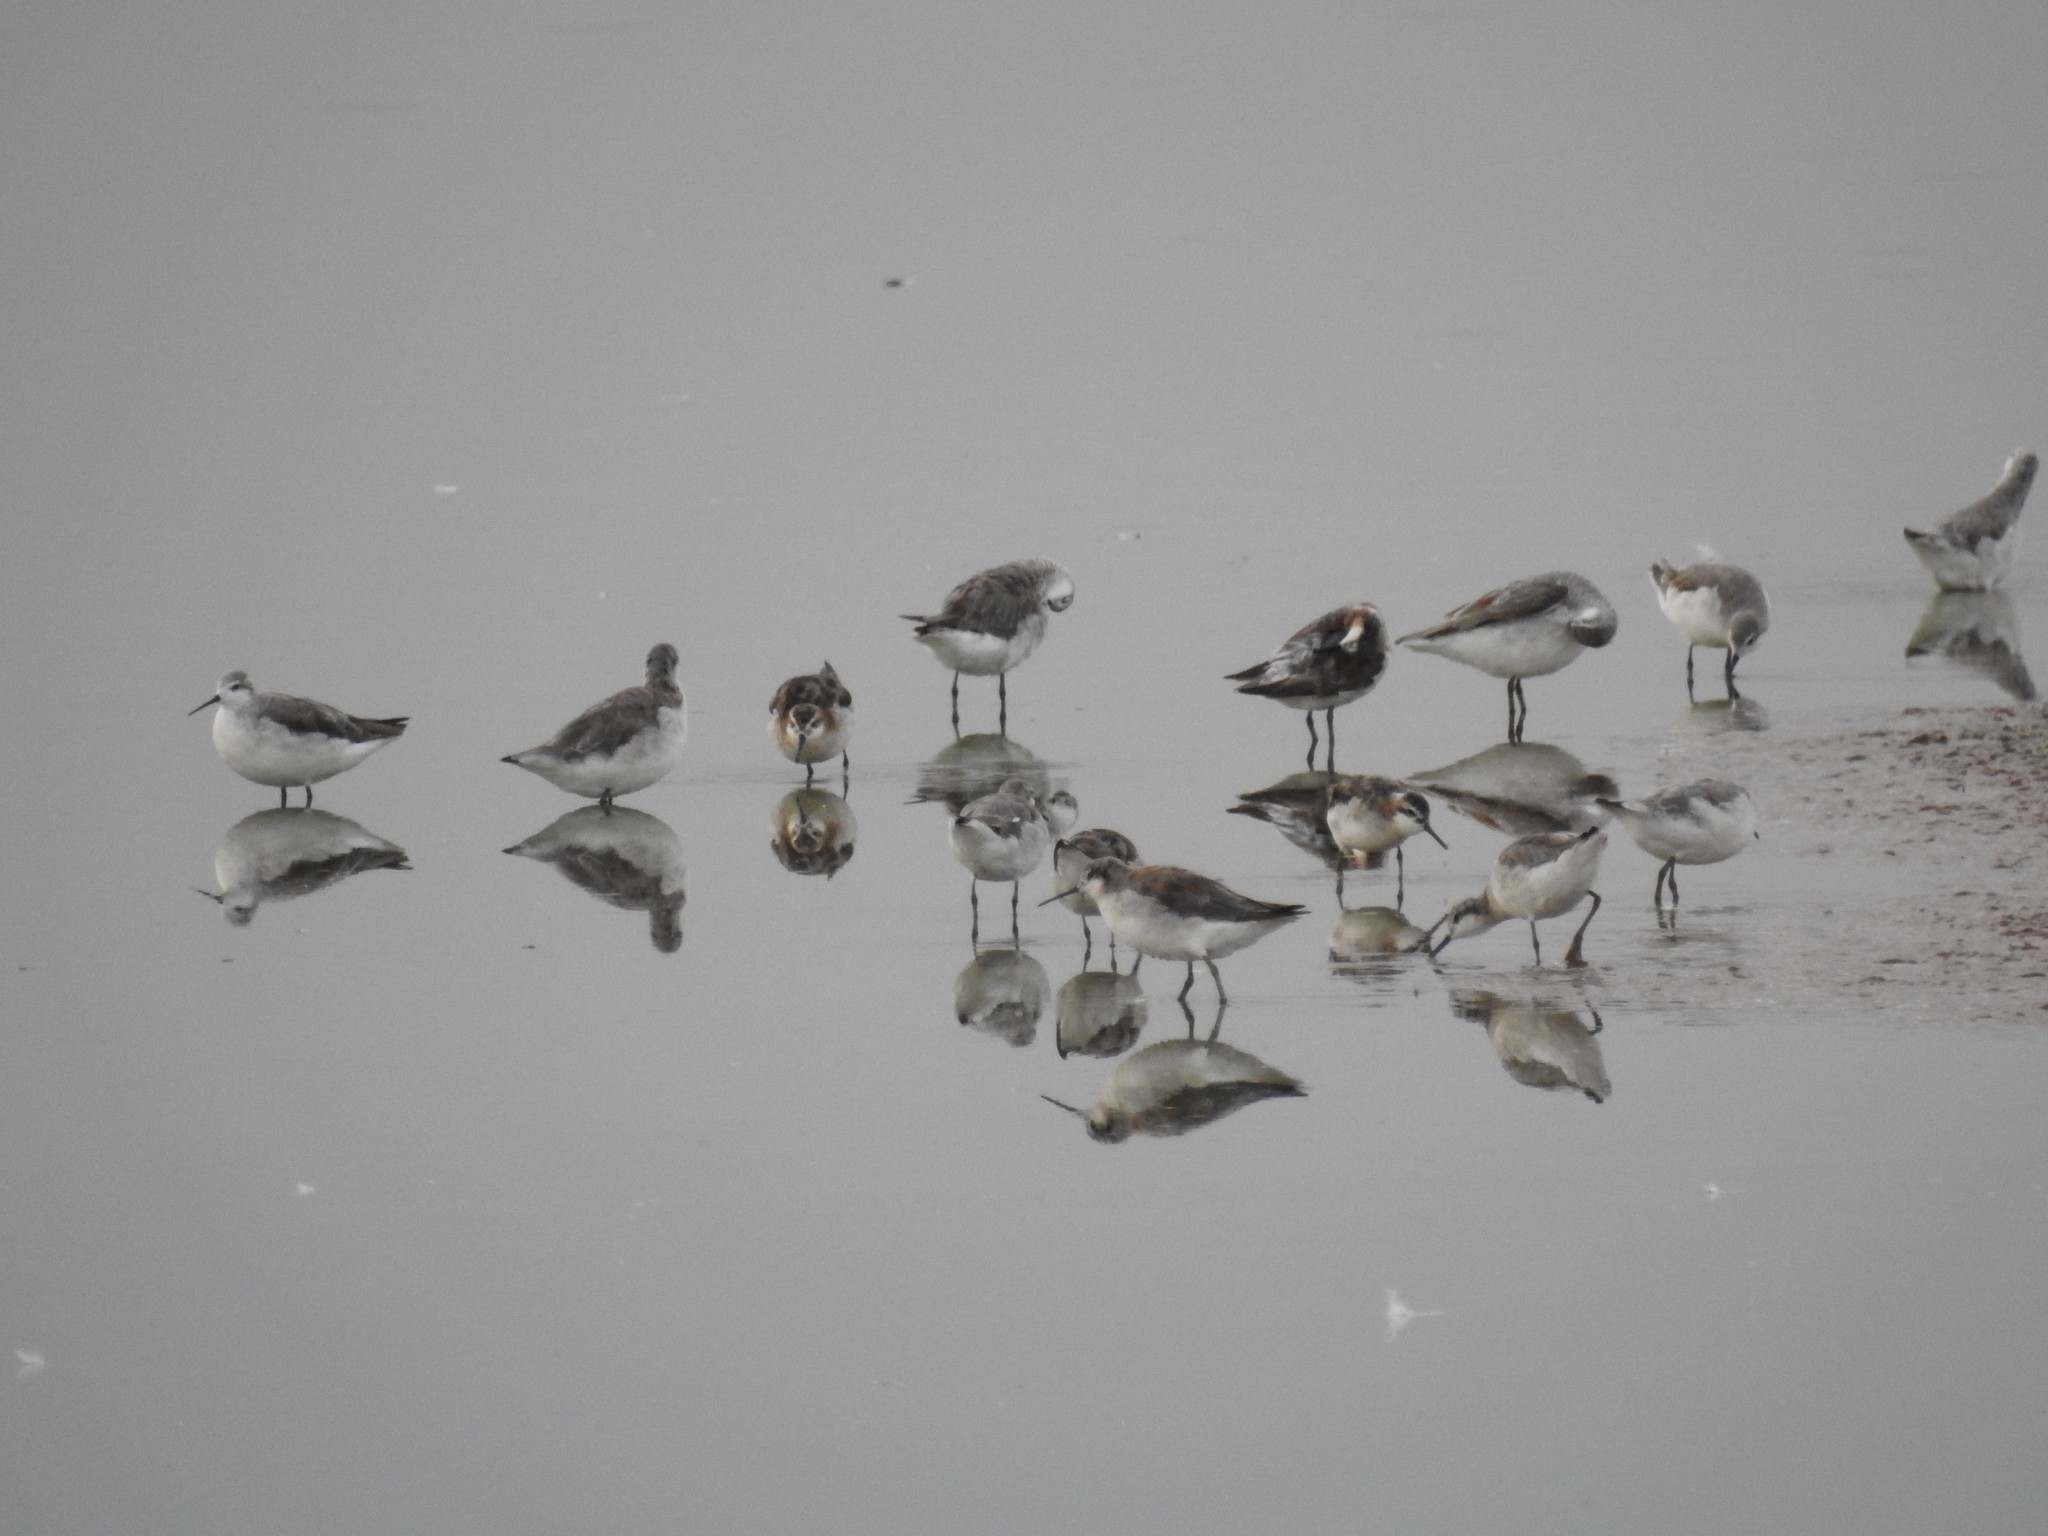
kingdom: Animalia
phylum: Chordata
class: Aves
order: Charadriiformes
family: Scolopacidae
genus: Phalaropus
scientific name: Phalaropus tricolor
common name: Wilson's phalarope
